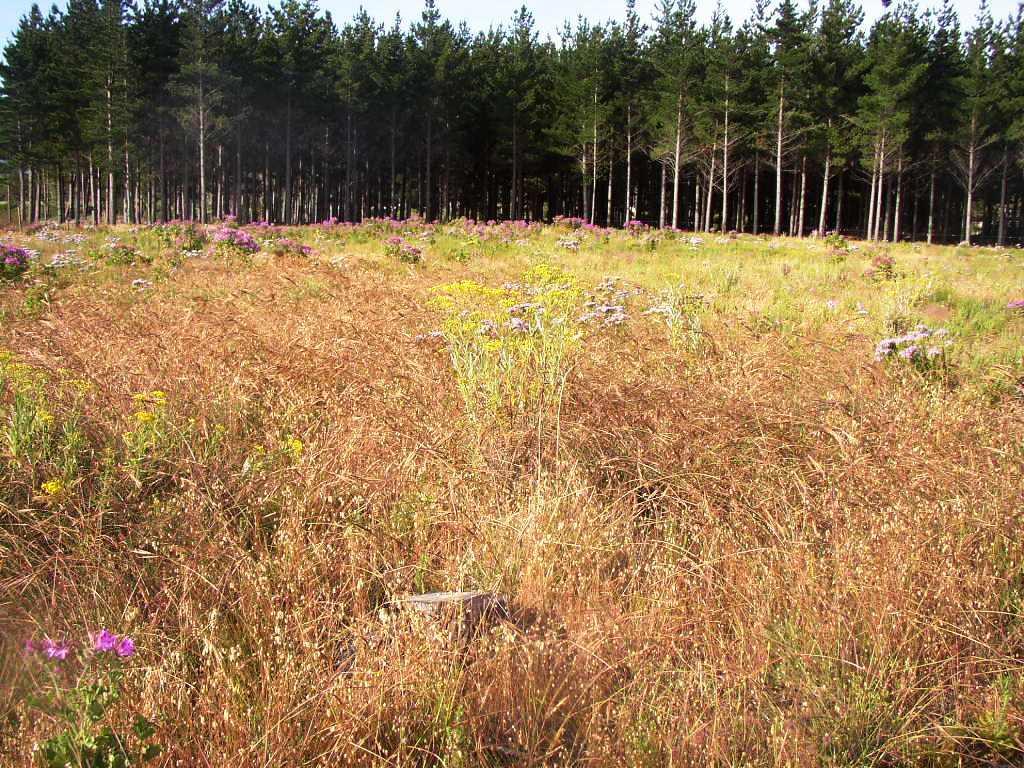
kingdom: Plantae
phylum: Tracheophyta
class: Liliopsida
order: Poales
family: Poaceae
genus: Briza
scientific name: Briza maxima
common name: Big quakinggrass
